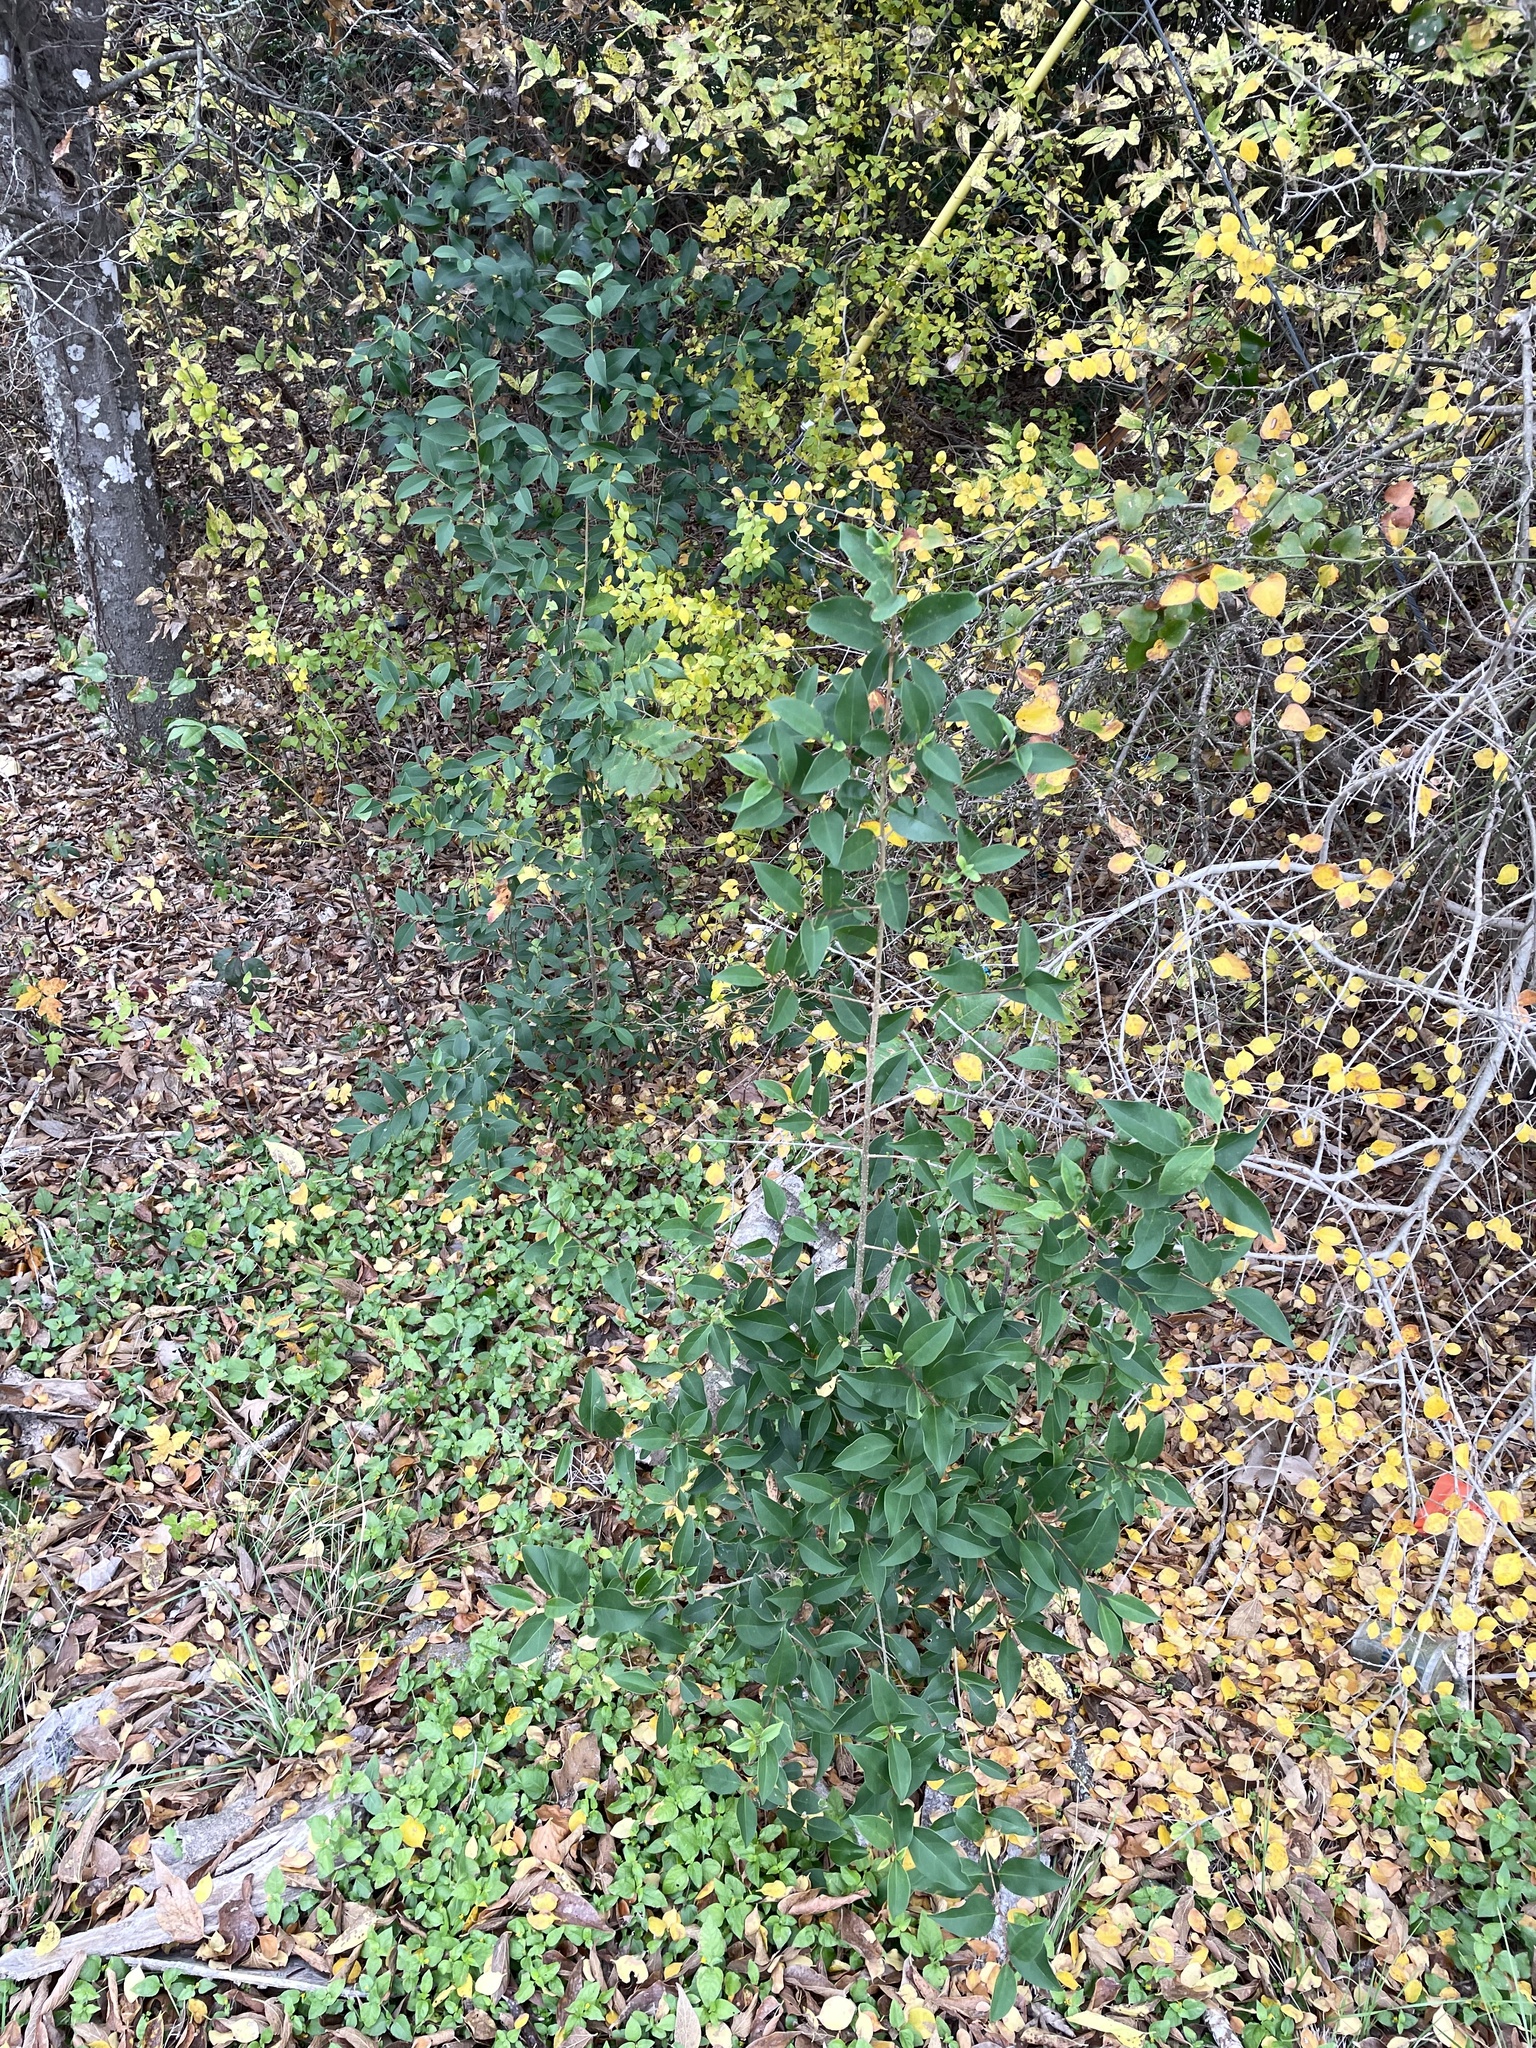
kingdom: Plantae
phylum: Tracheophyta
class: Magnoliopsida
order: Lamiales
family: Oleaceae
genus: Ligustrum
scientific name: Ligustrum lucidum
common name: Glossy privet
